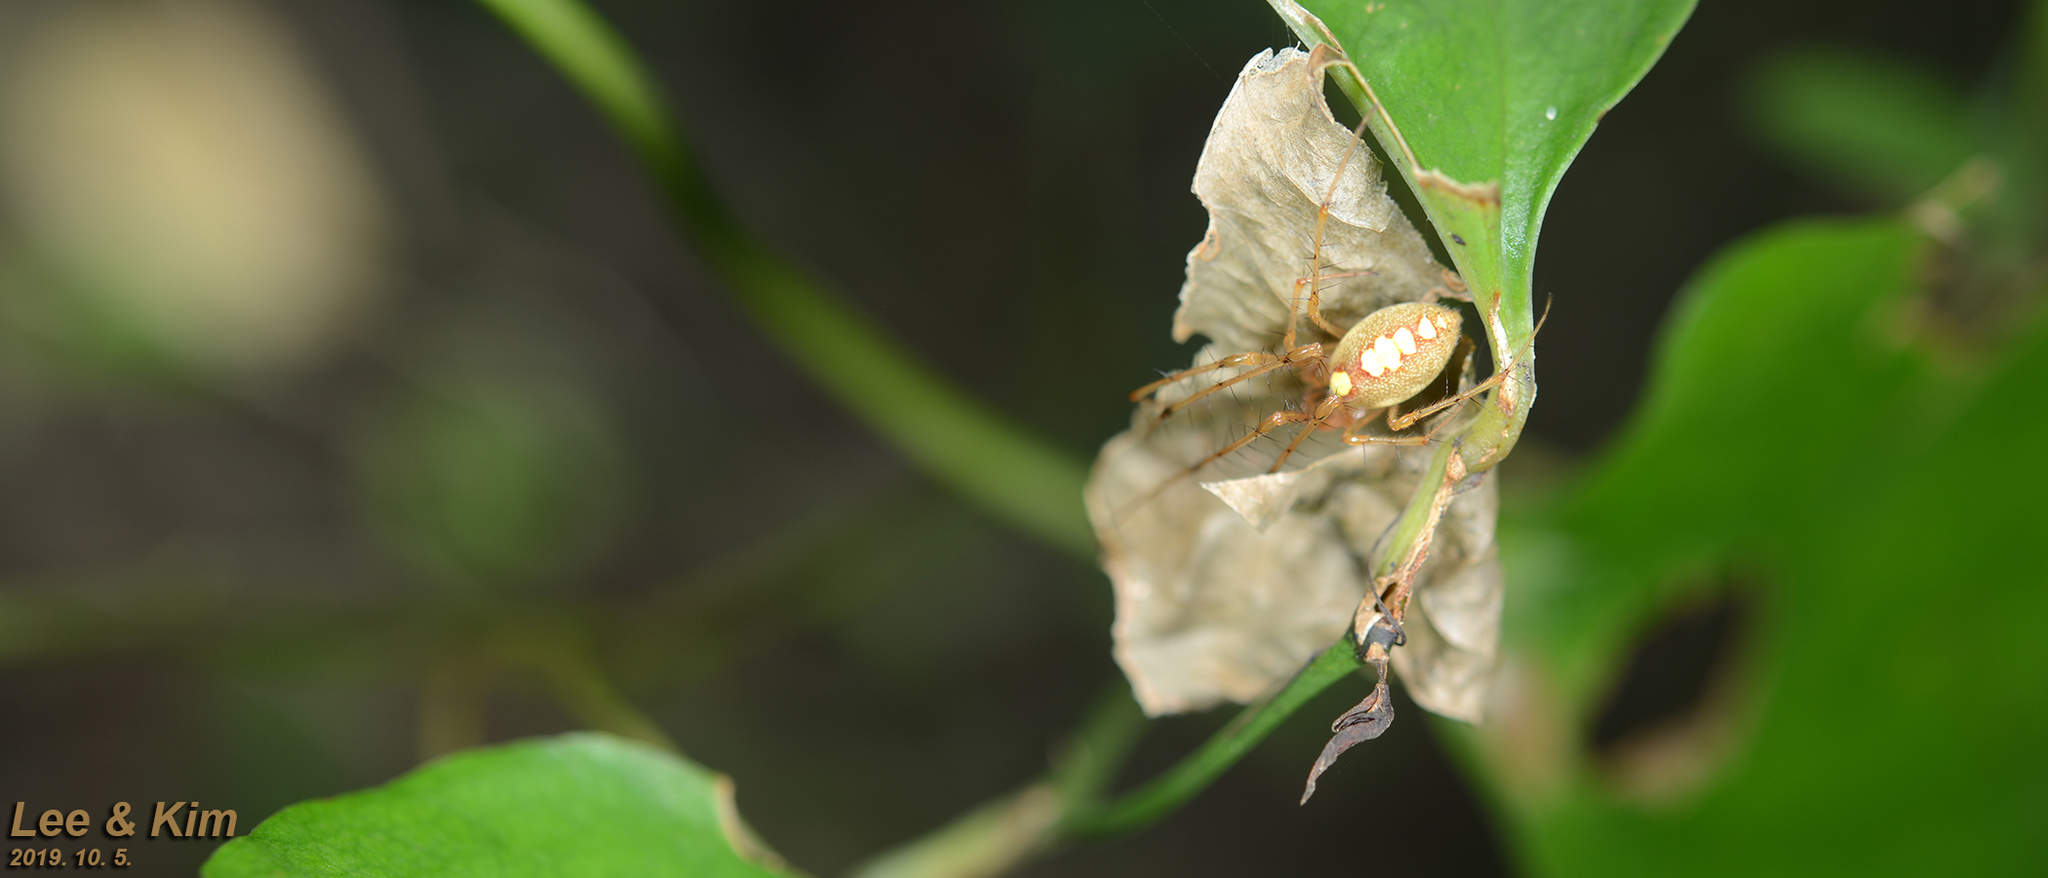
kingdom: Animalia
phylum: Arthropoda
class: Arachnida
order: Araneae
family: Tetragnathidae
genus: Metellina
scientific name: Metellina ornata
